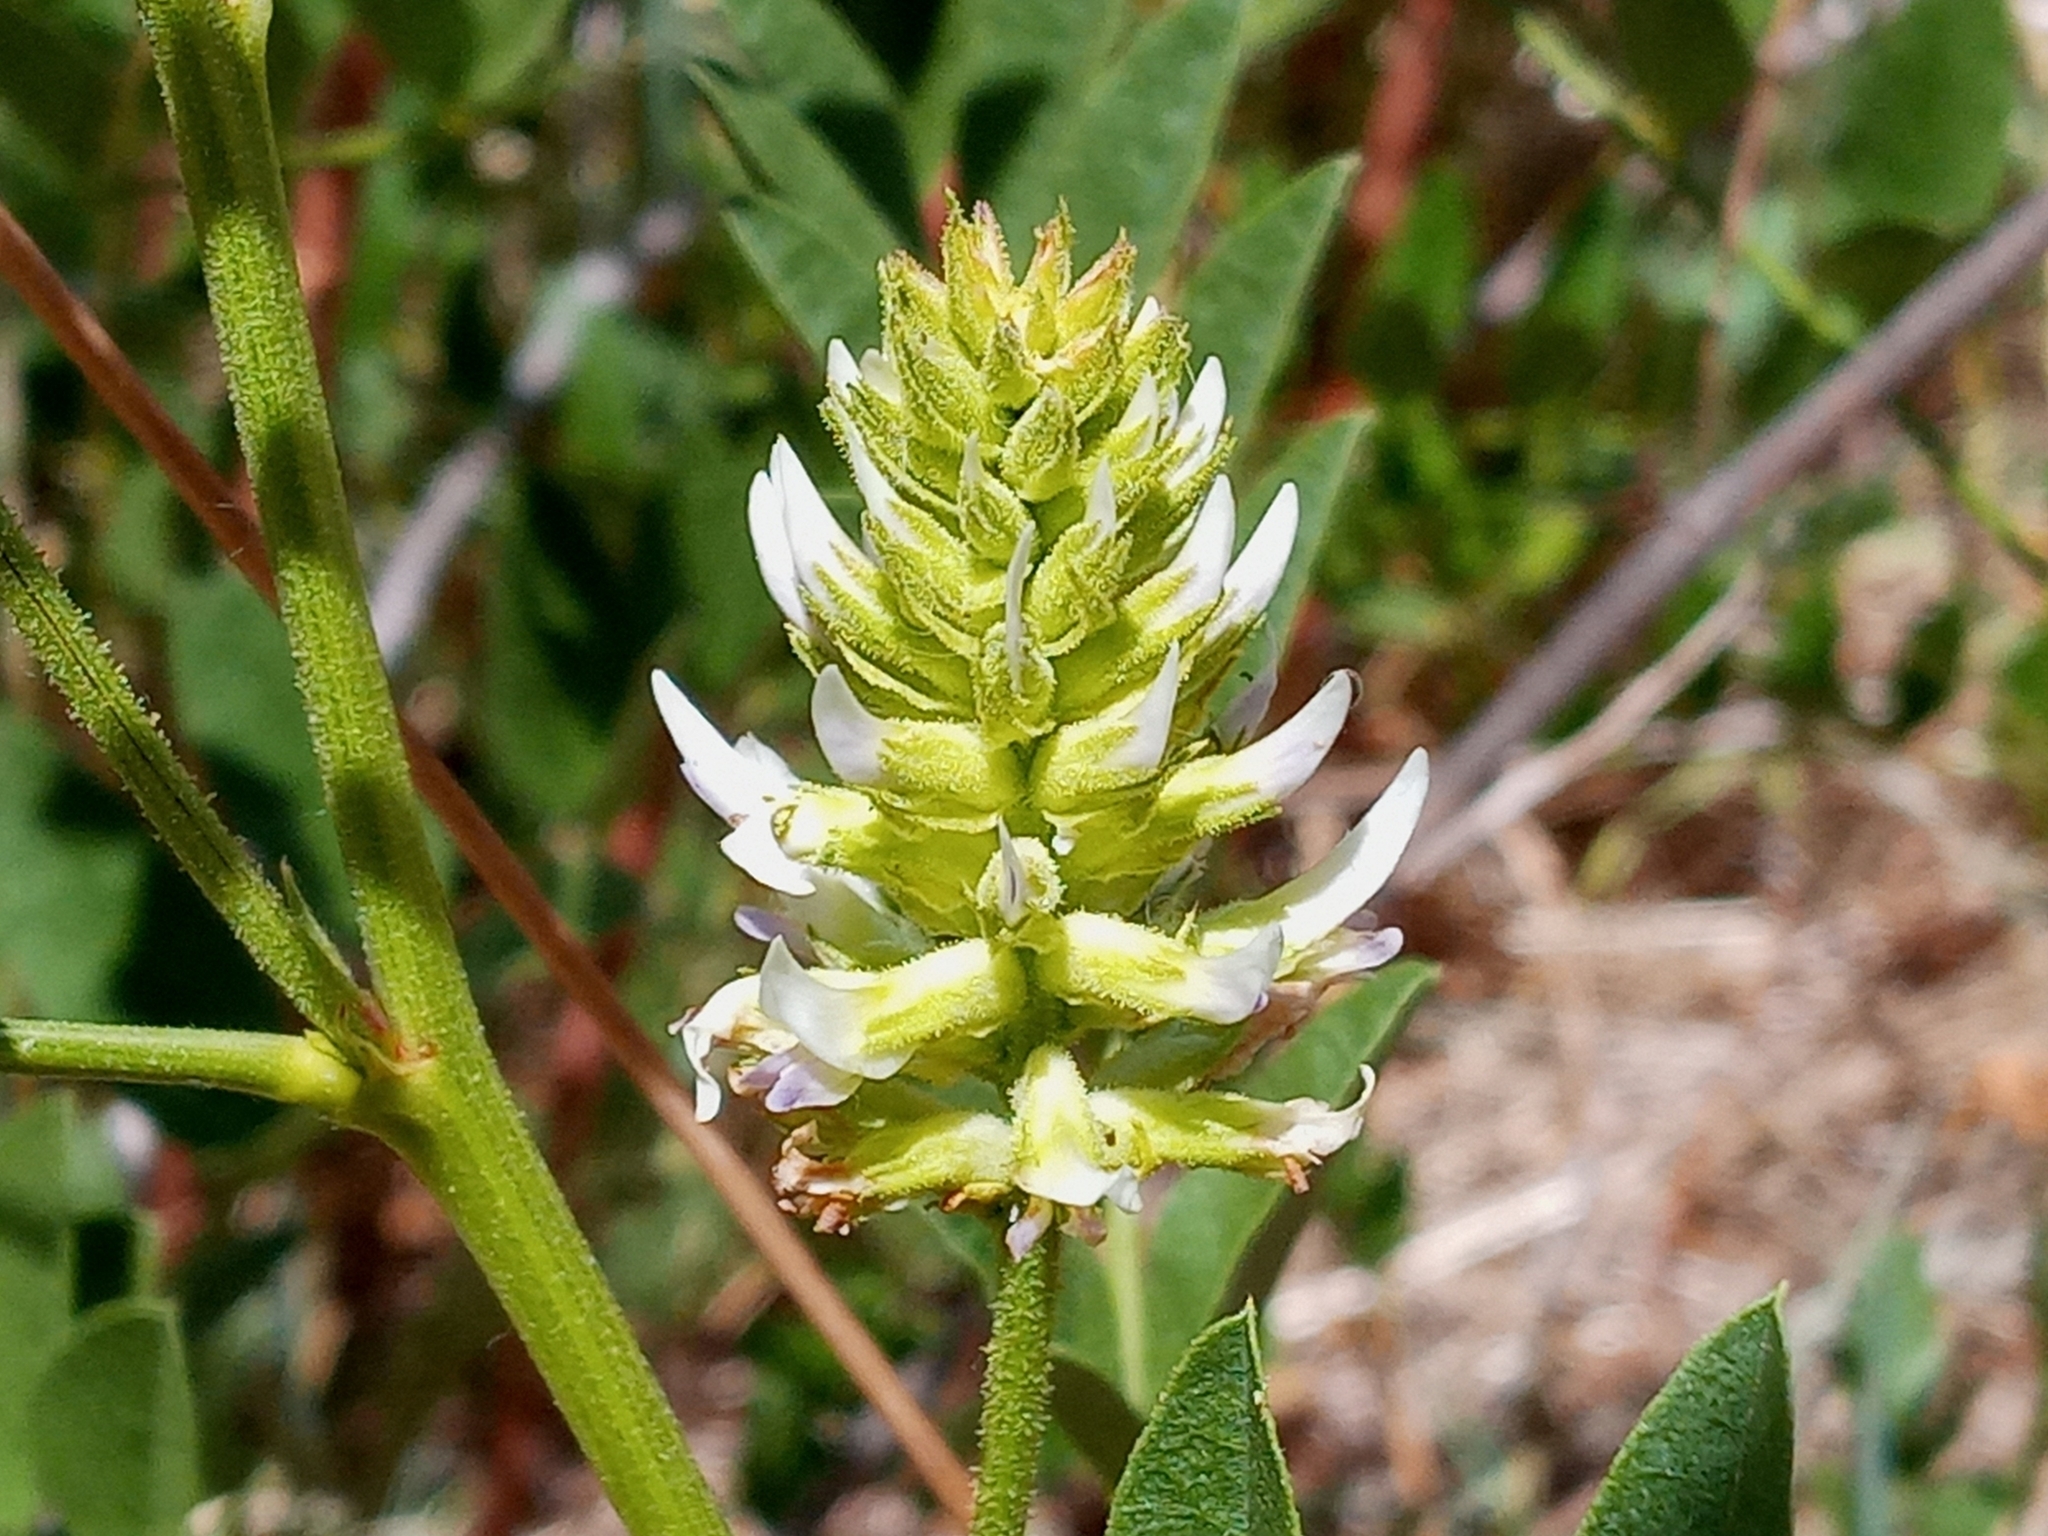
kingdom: Plantae
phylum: Tracheophyta
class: Magnoliopsida
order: Fabales
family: Fabaceae
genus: Glycyrrhiza
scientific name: Glycyrrhiza lepidota
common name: American liquorice
